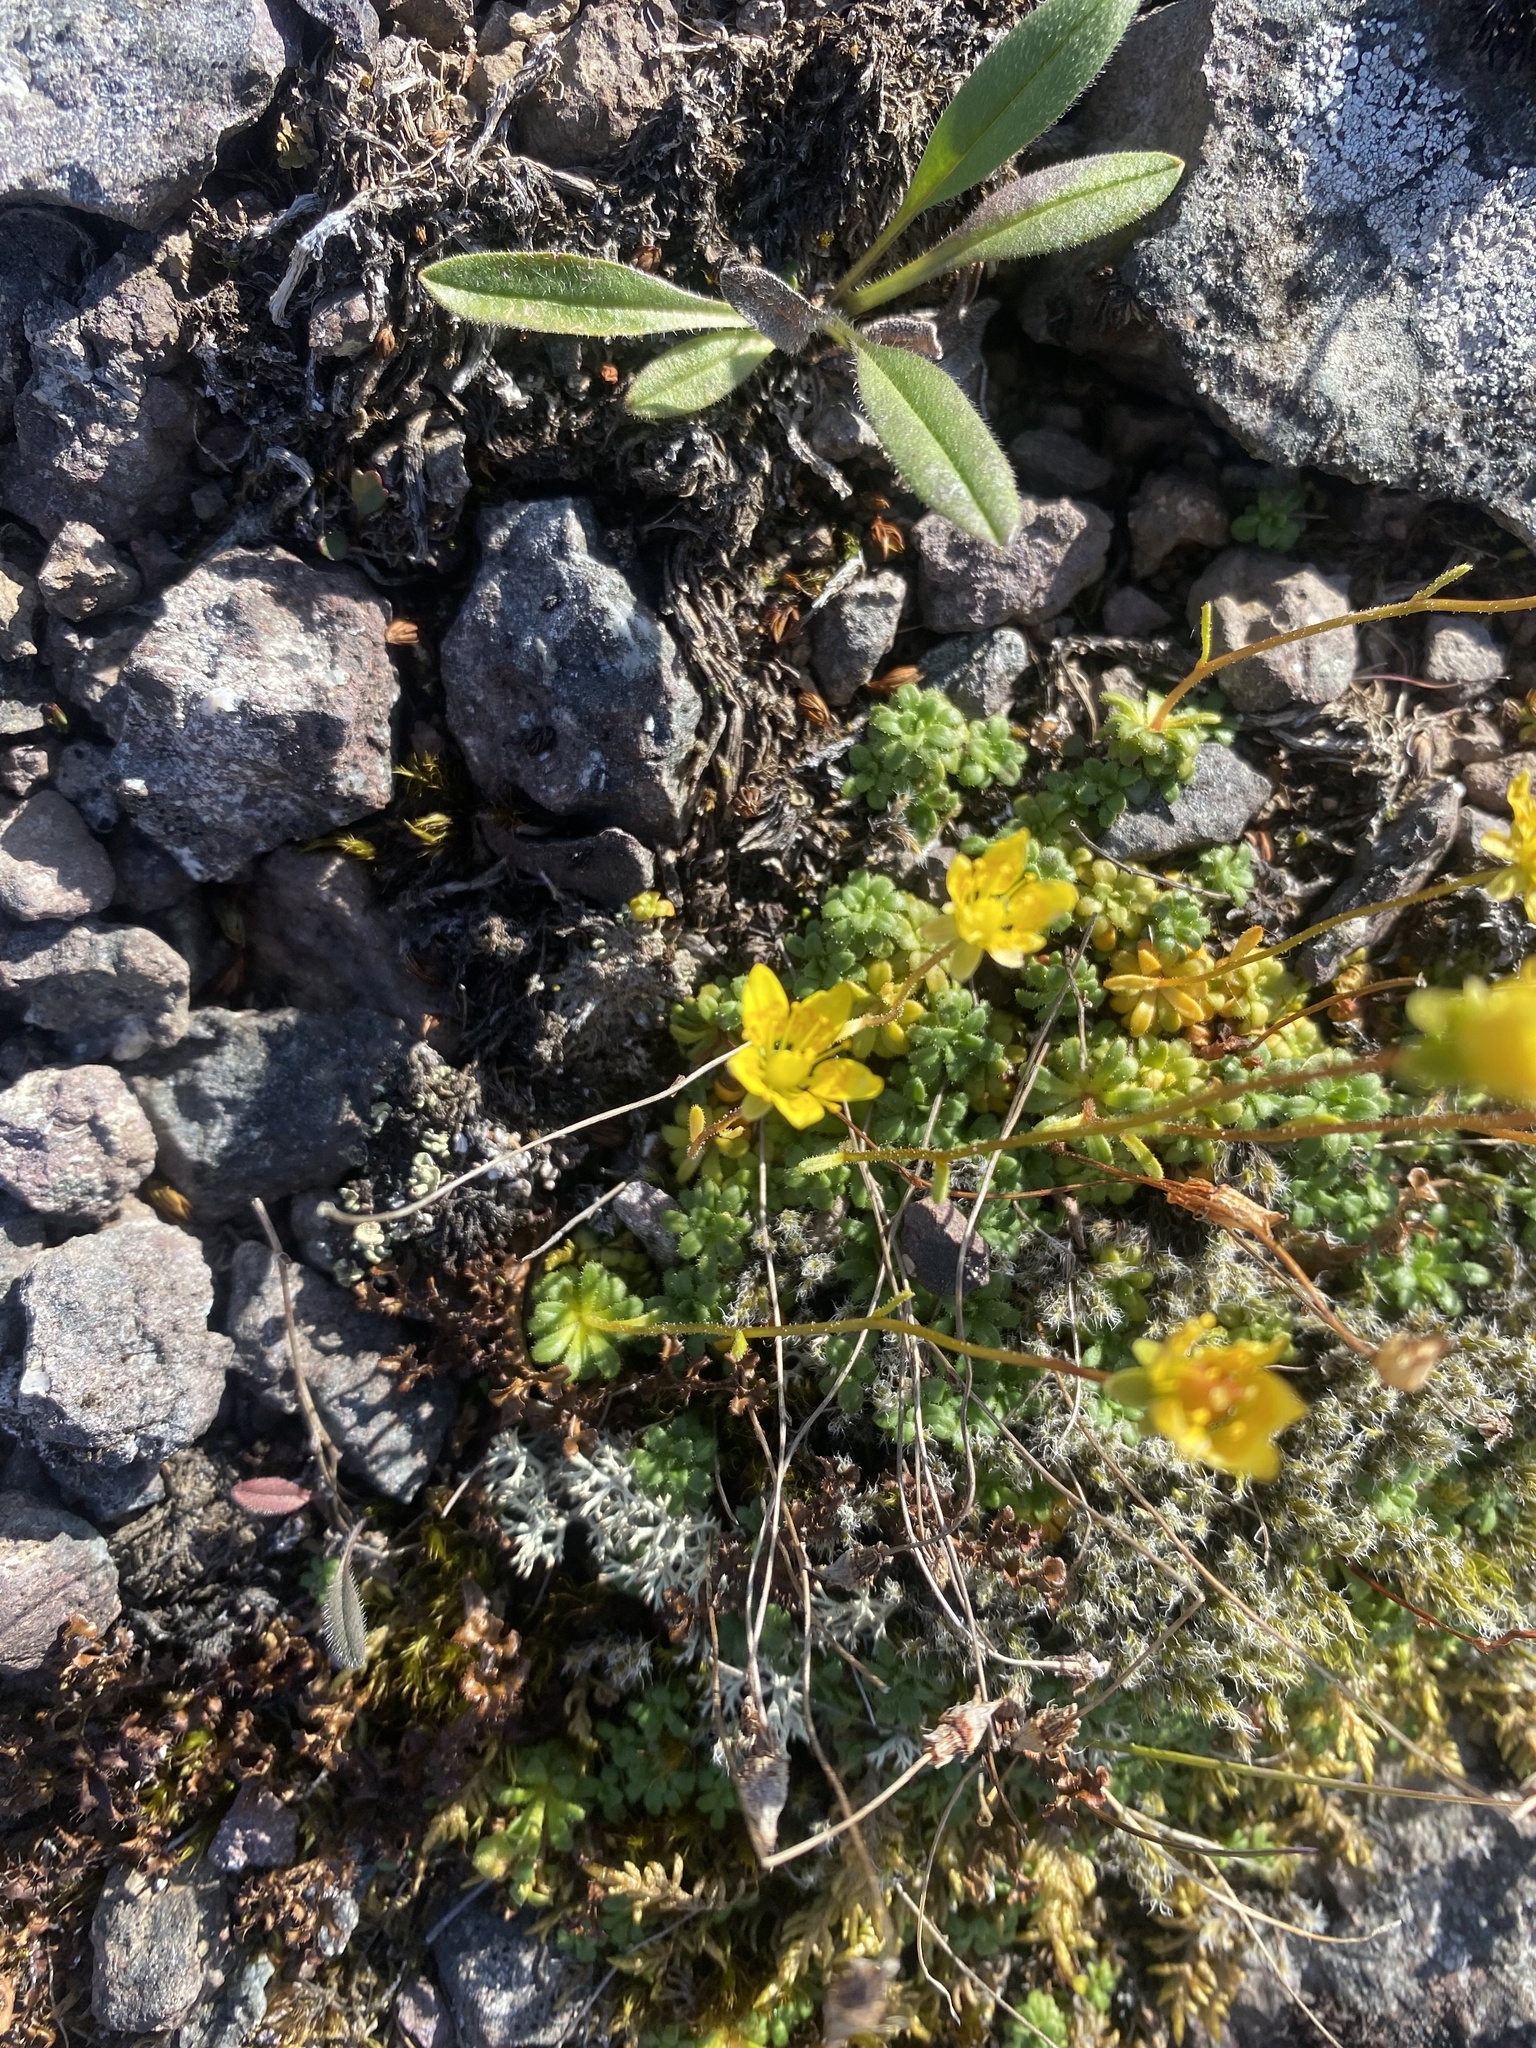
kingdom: Plantae
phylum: Tracheophyta
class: Magnoliopsida
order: Saxifragales
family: Saxifragaceae
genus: Saxifraga
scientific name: Saxifraga serpyllifolia
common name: Thyme-leaved saxifrage
